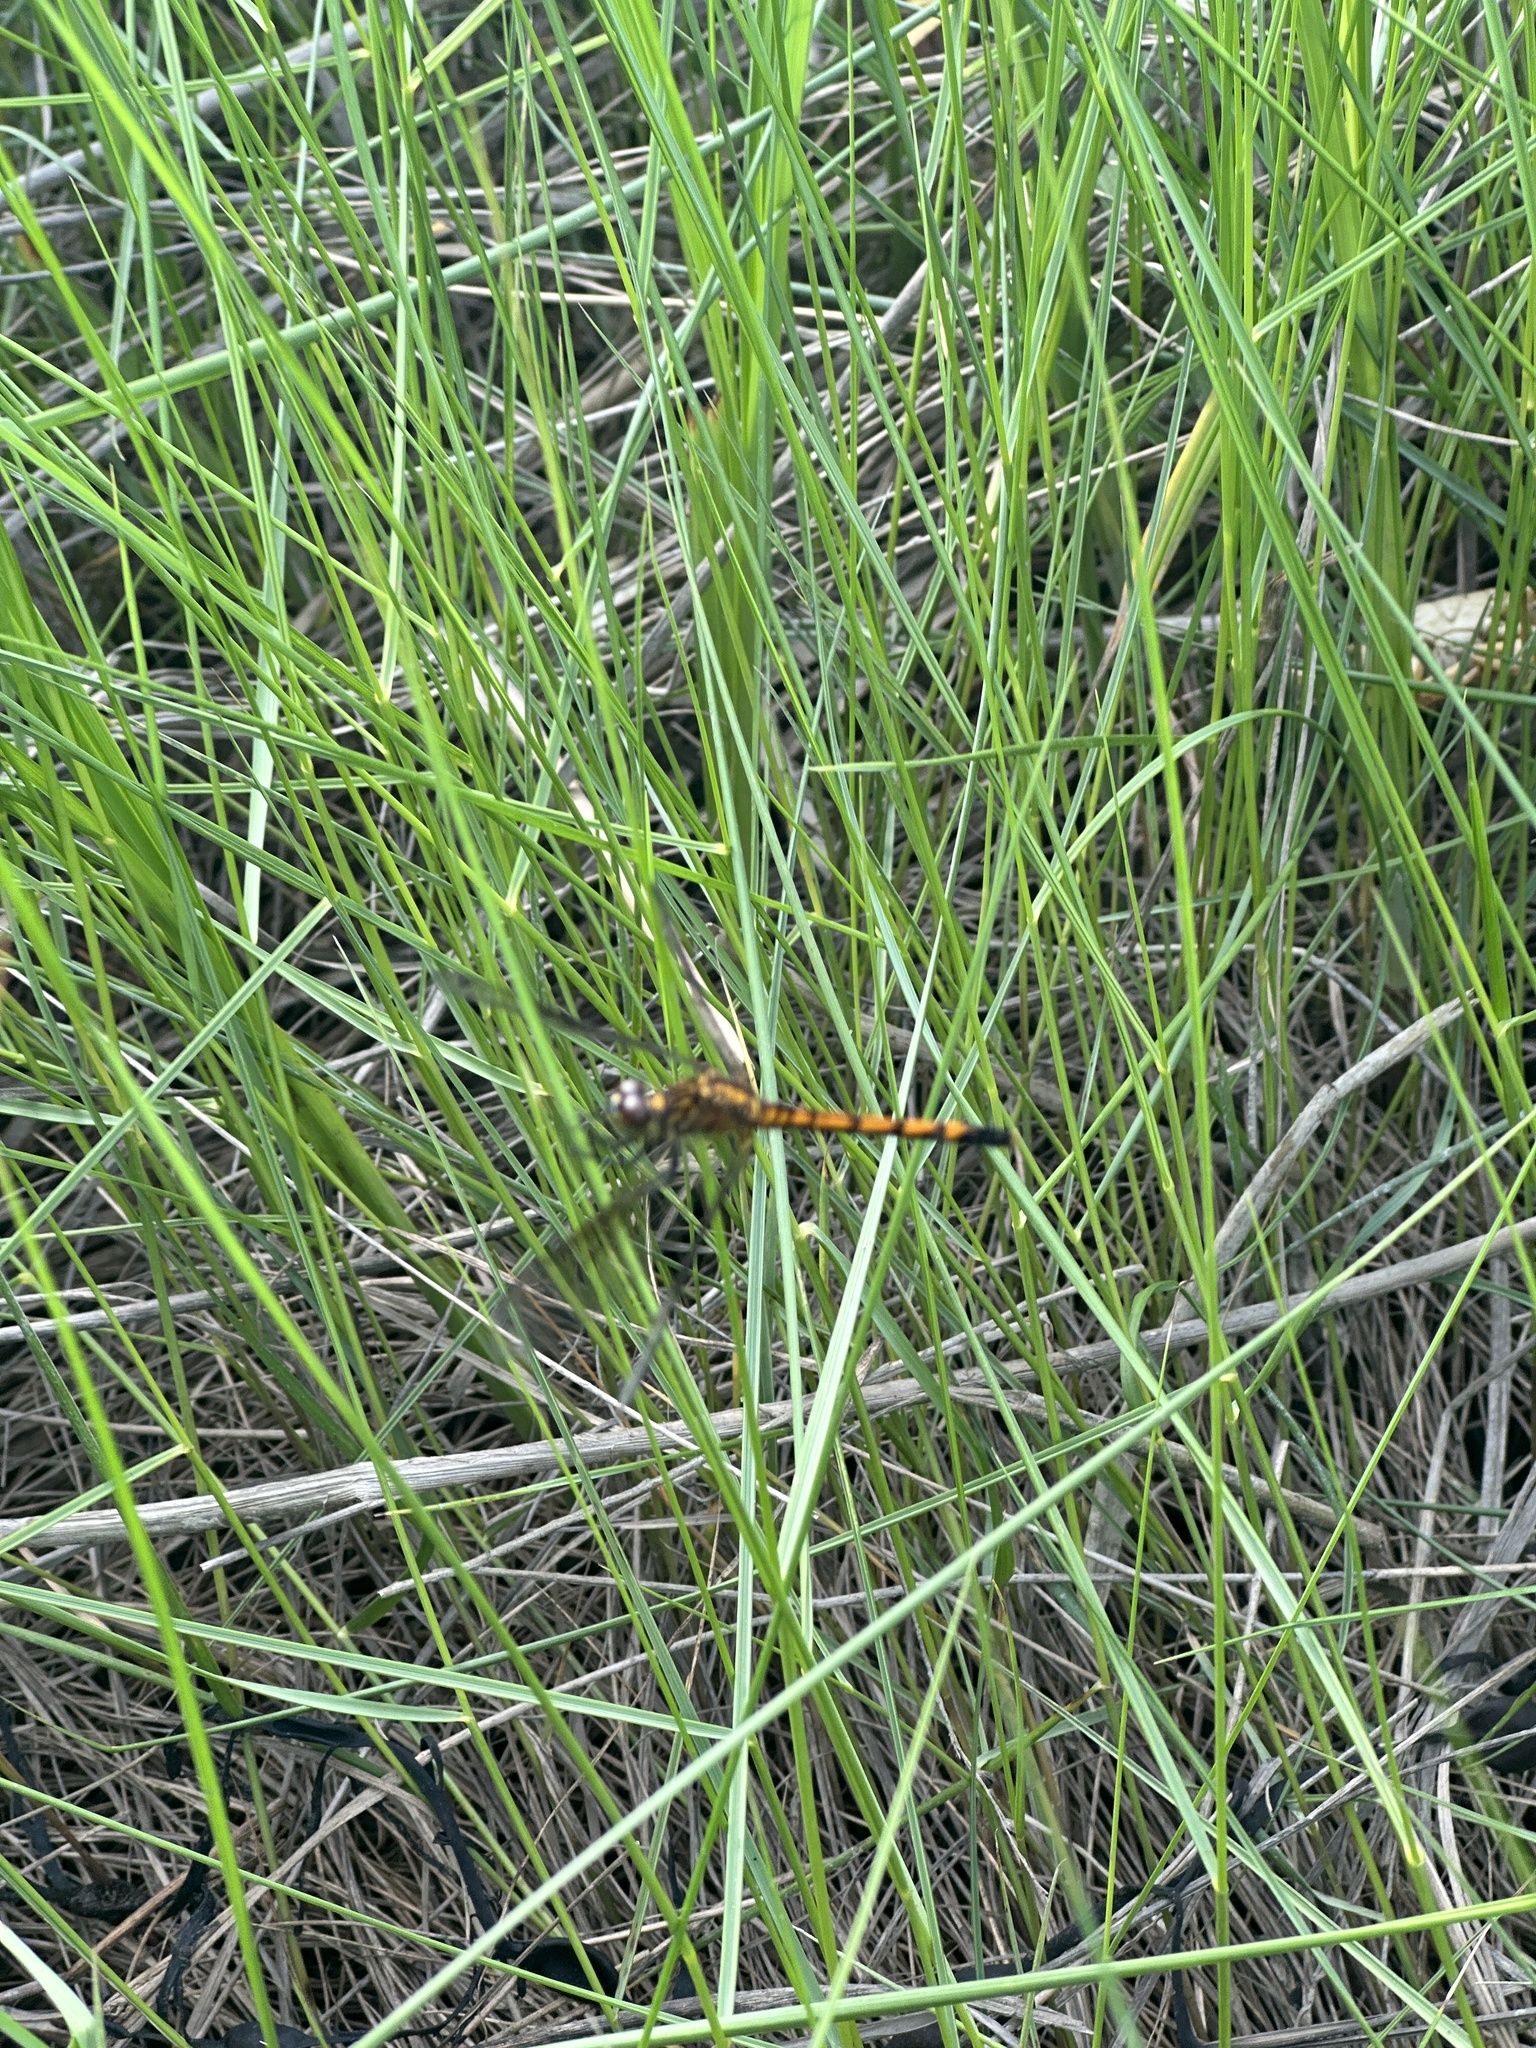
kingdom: Animalia
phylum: Arthropoda
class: Insecta
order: Odonata
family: Libellulidae
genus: Erythrodiplax
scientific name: Erythrodiplax berenice
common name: Seaside dragonlet
